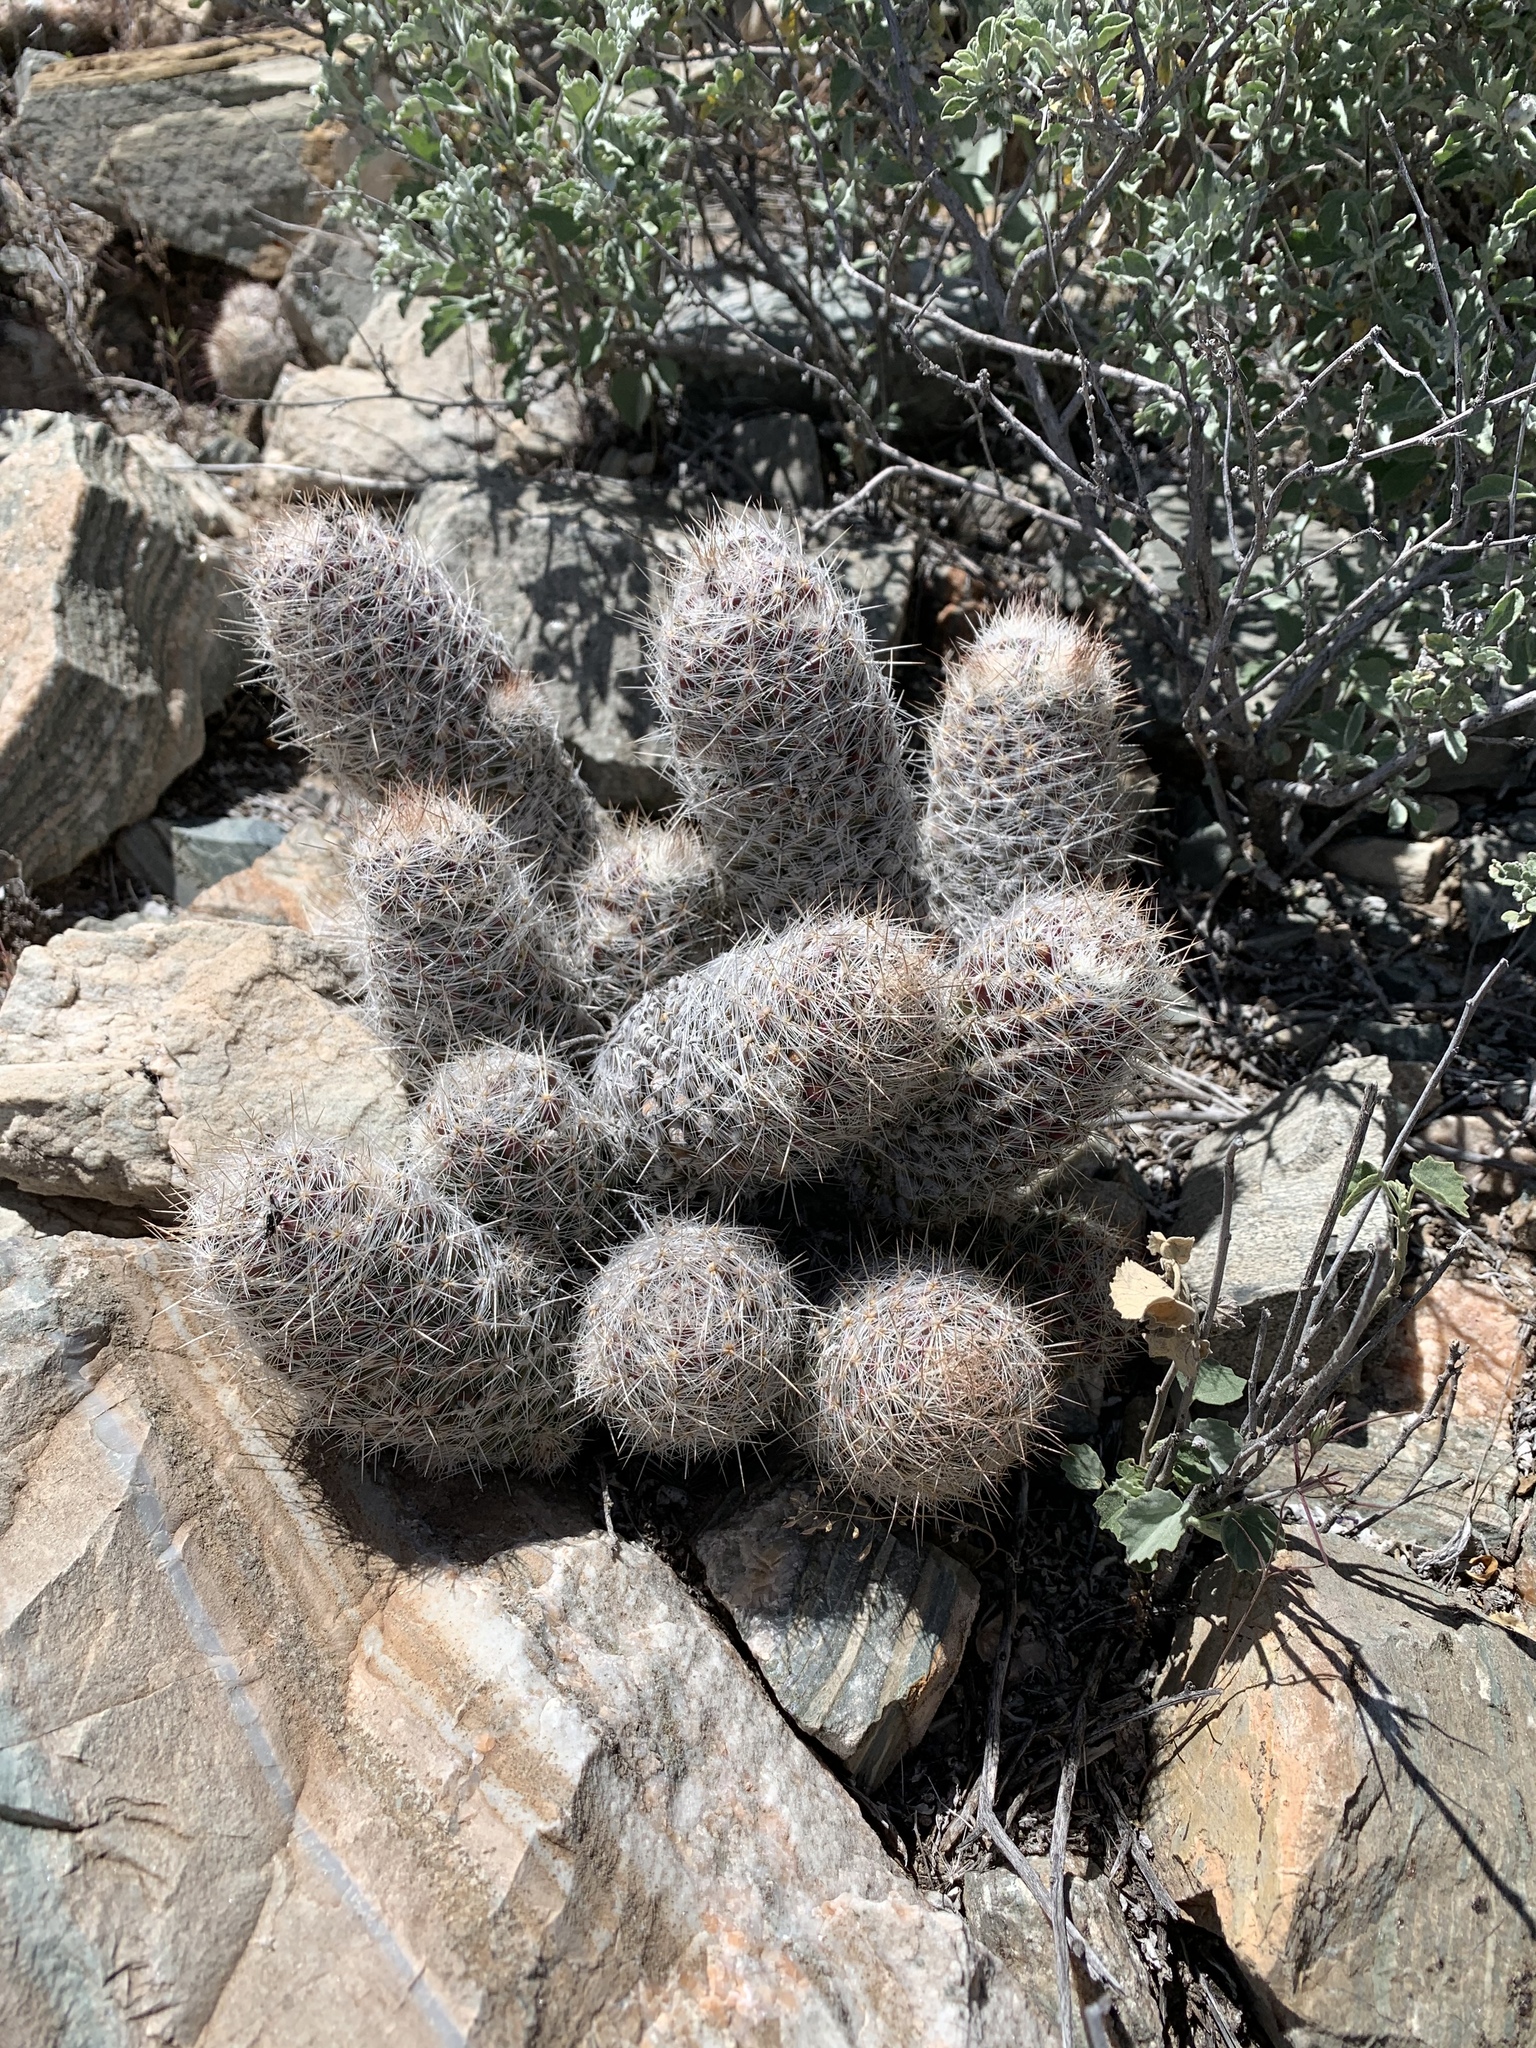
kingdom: Plantae
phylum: Tracheophyta
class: Magnoliopsida
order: Caryophyllales
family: Cactaceae
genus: Pelecyphora
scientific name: Pelecyphora tuberculosa
